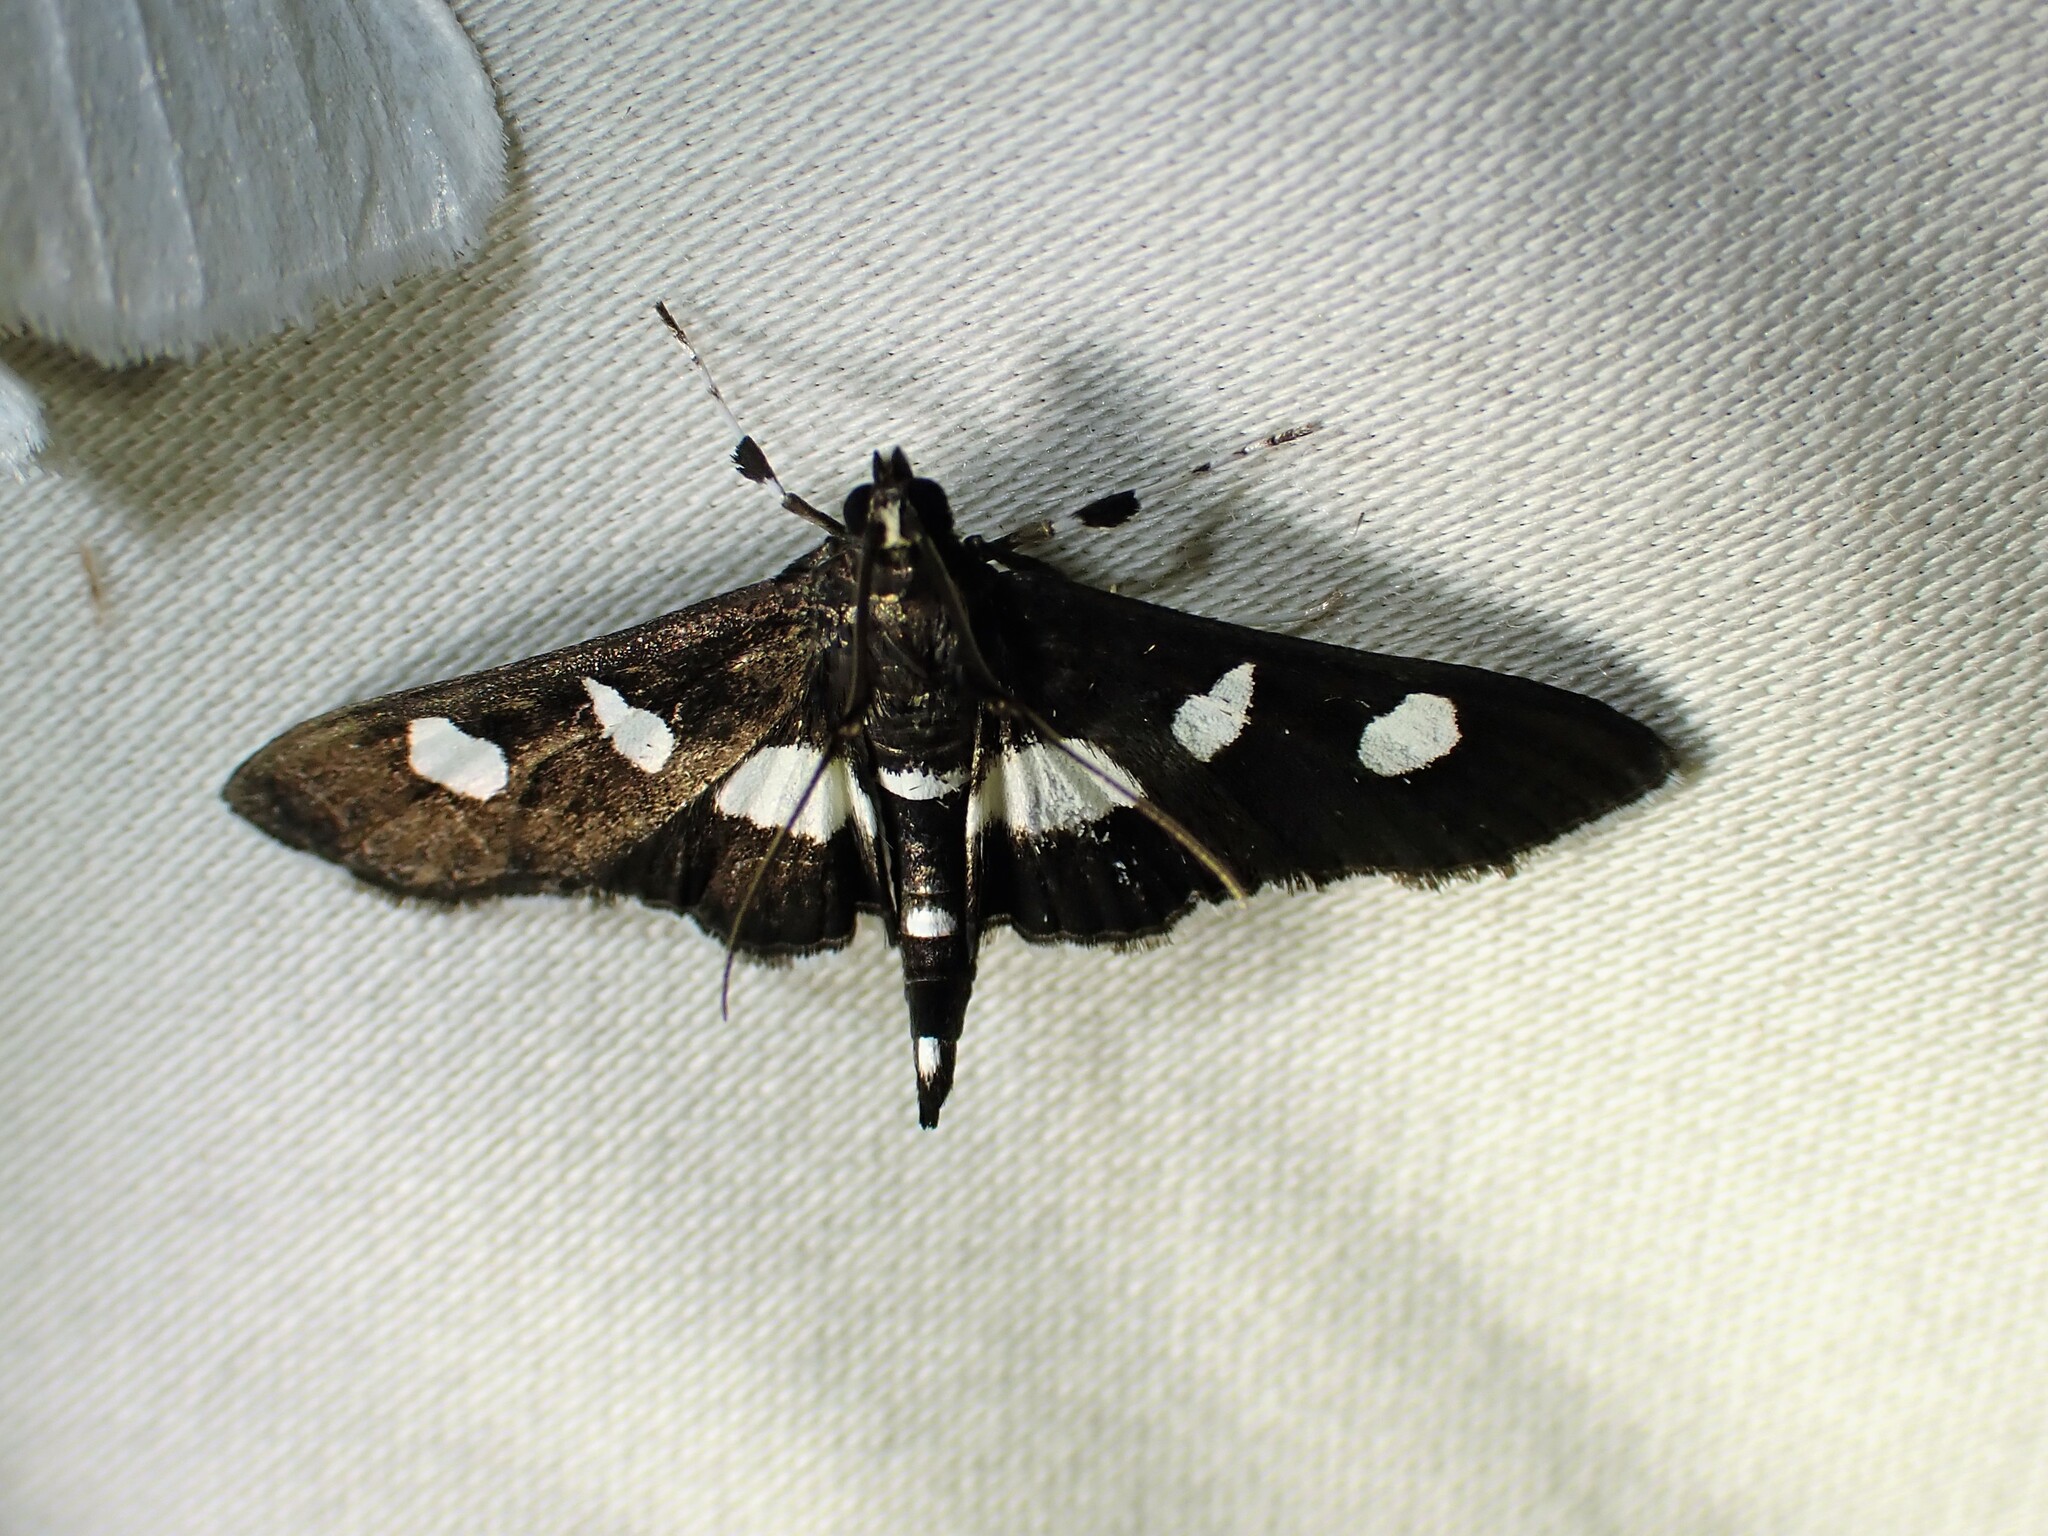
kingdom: Animalia
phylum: Arthropoda
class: Insecta
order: Lepidoptera
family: Crambidae
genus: Desmia
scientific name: Desmia funeralis
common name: Grape leaf folder moth
